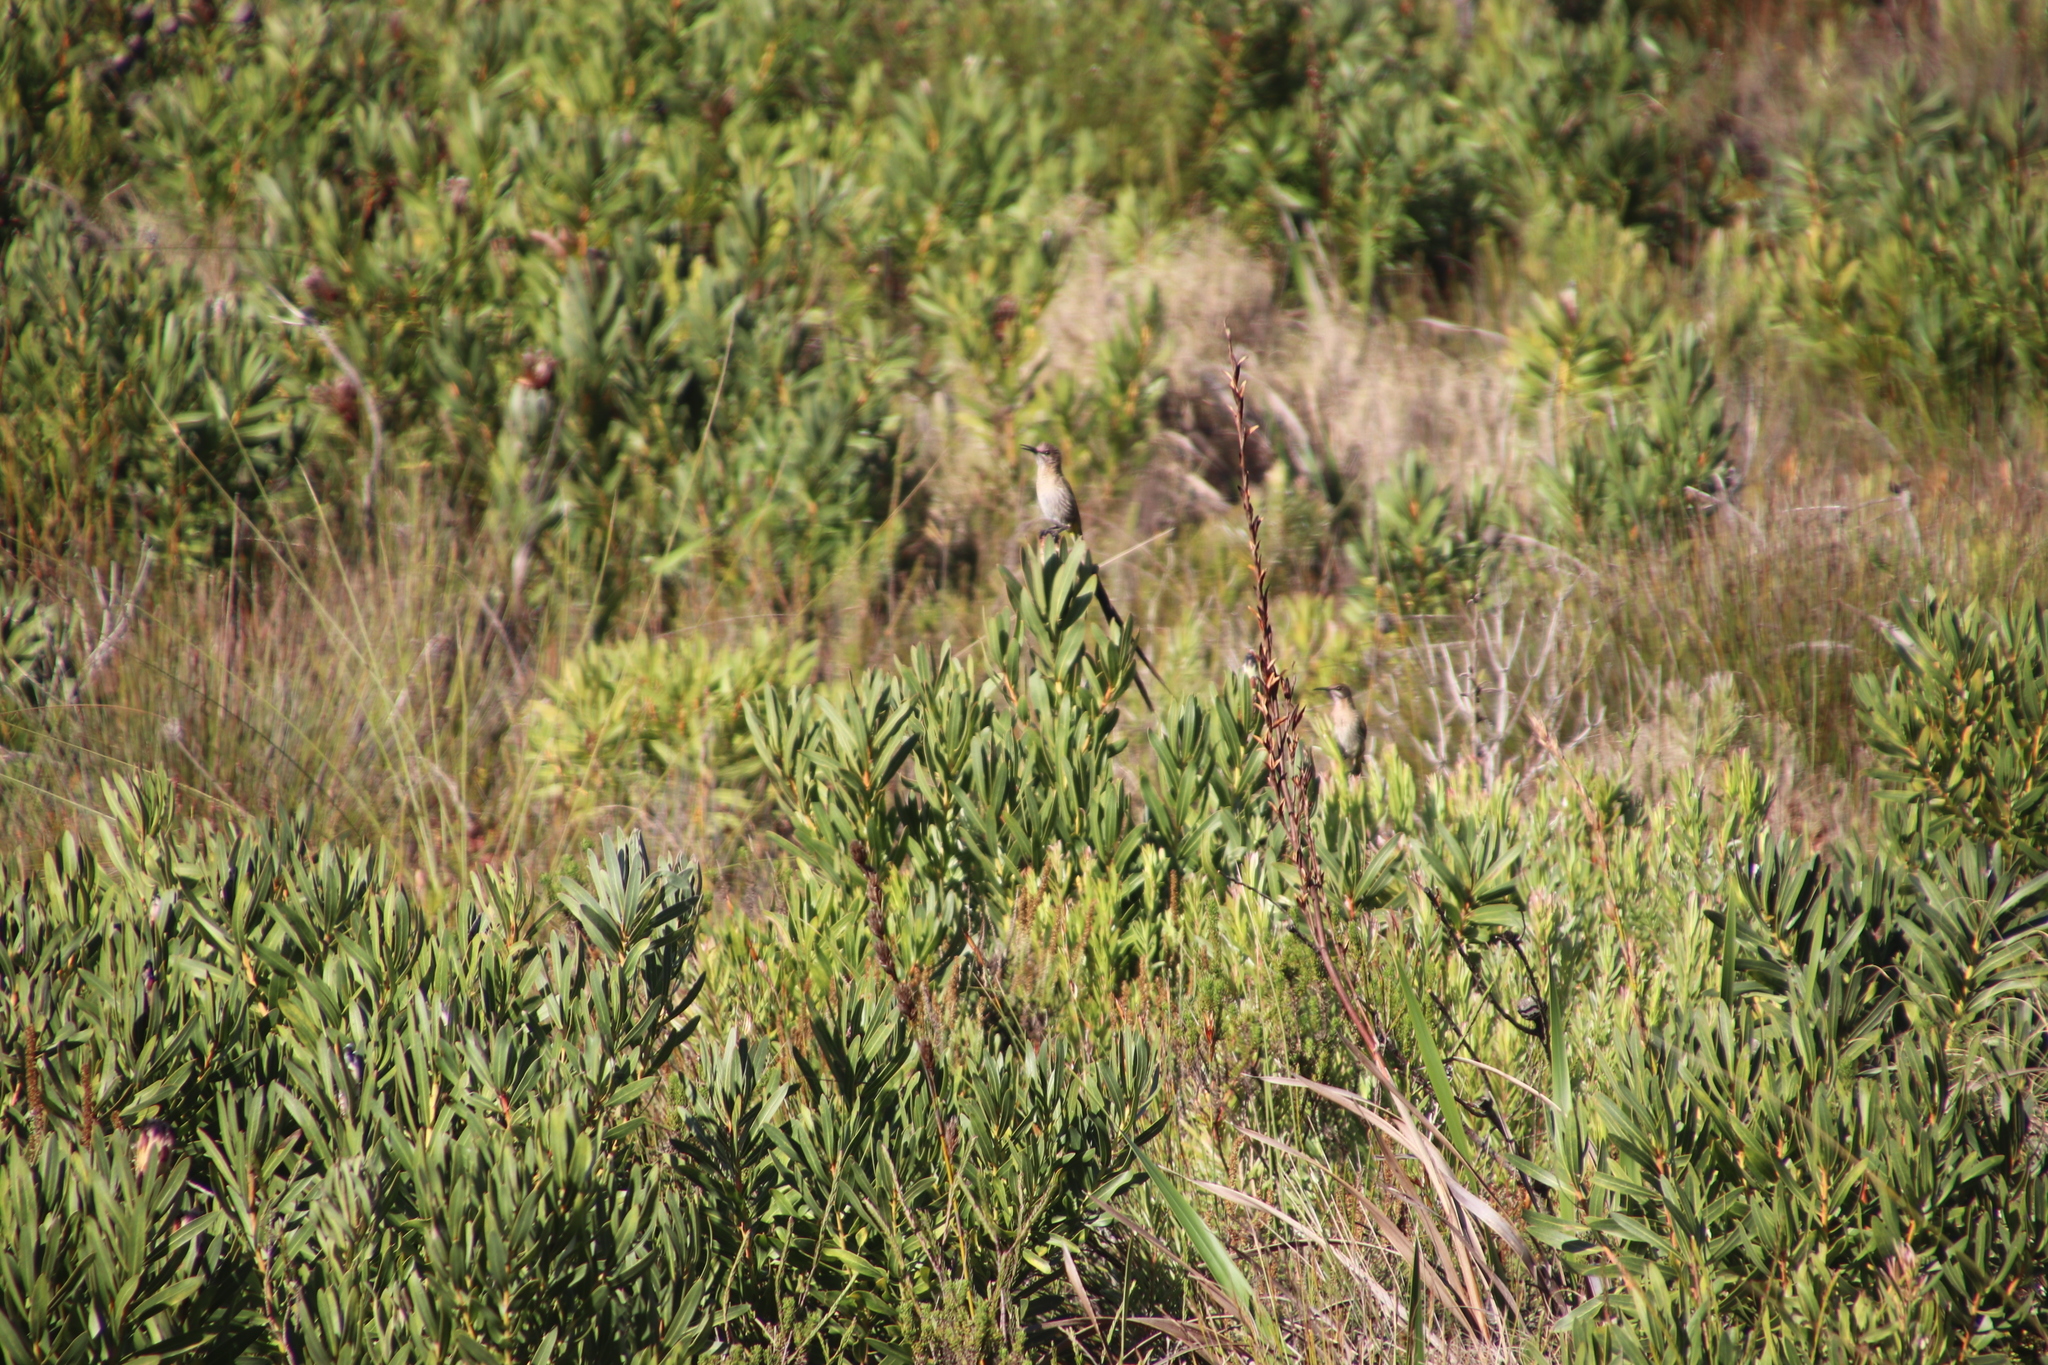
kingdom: Animalia
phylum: Chordata
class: Aves
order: Passeriformes
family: Promeropidae
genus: Promerops
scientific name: Promerops cafer
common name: Cape sugarbird
